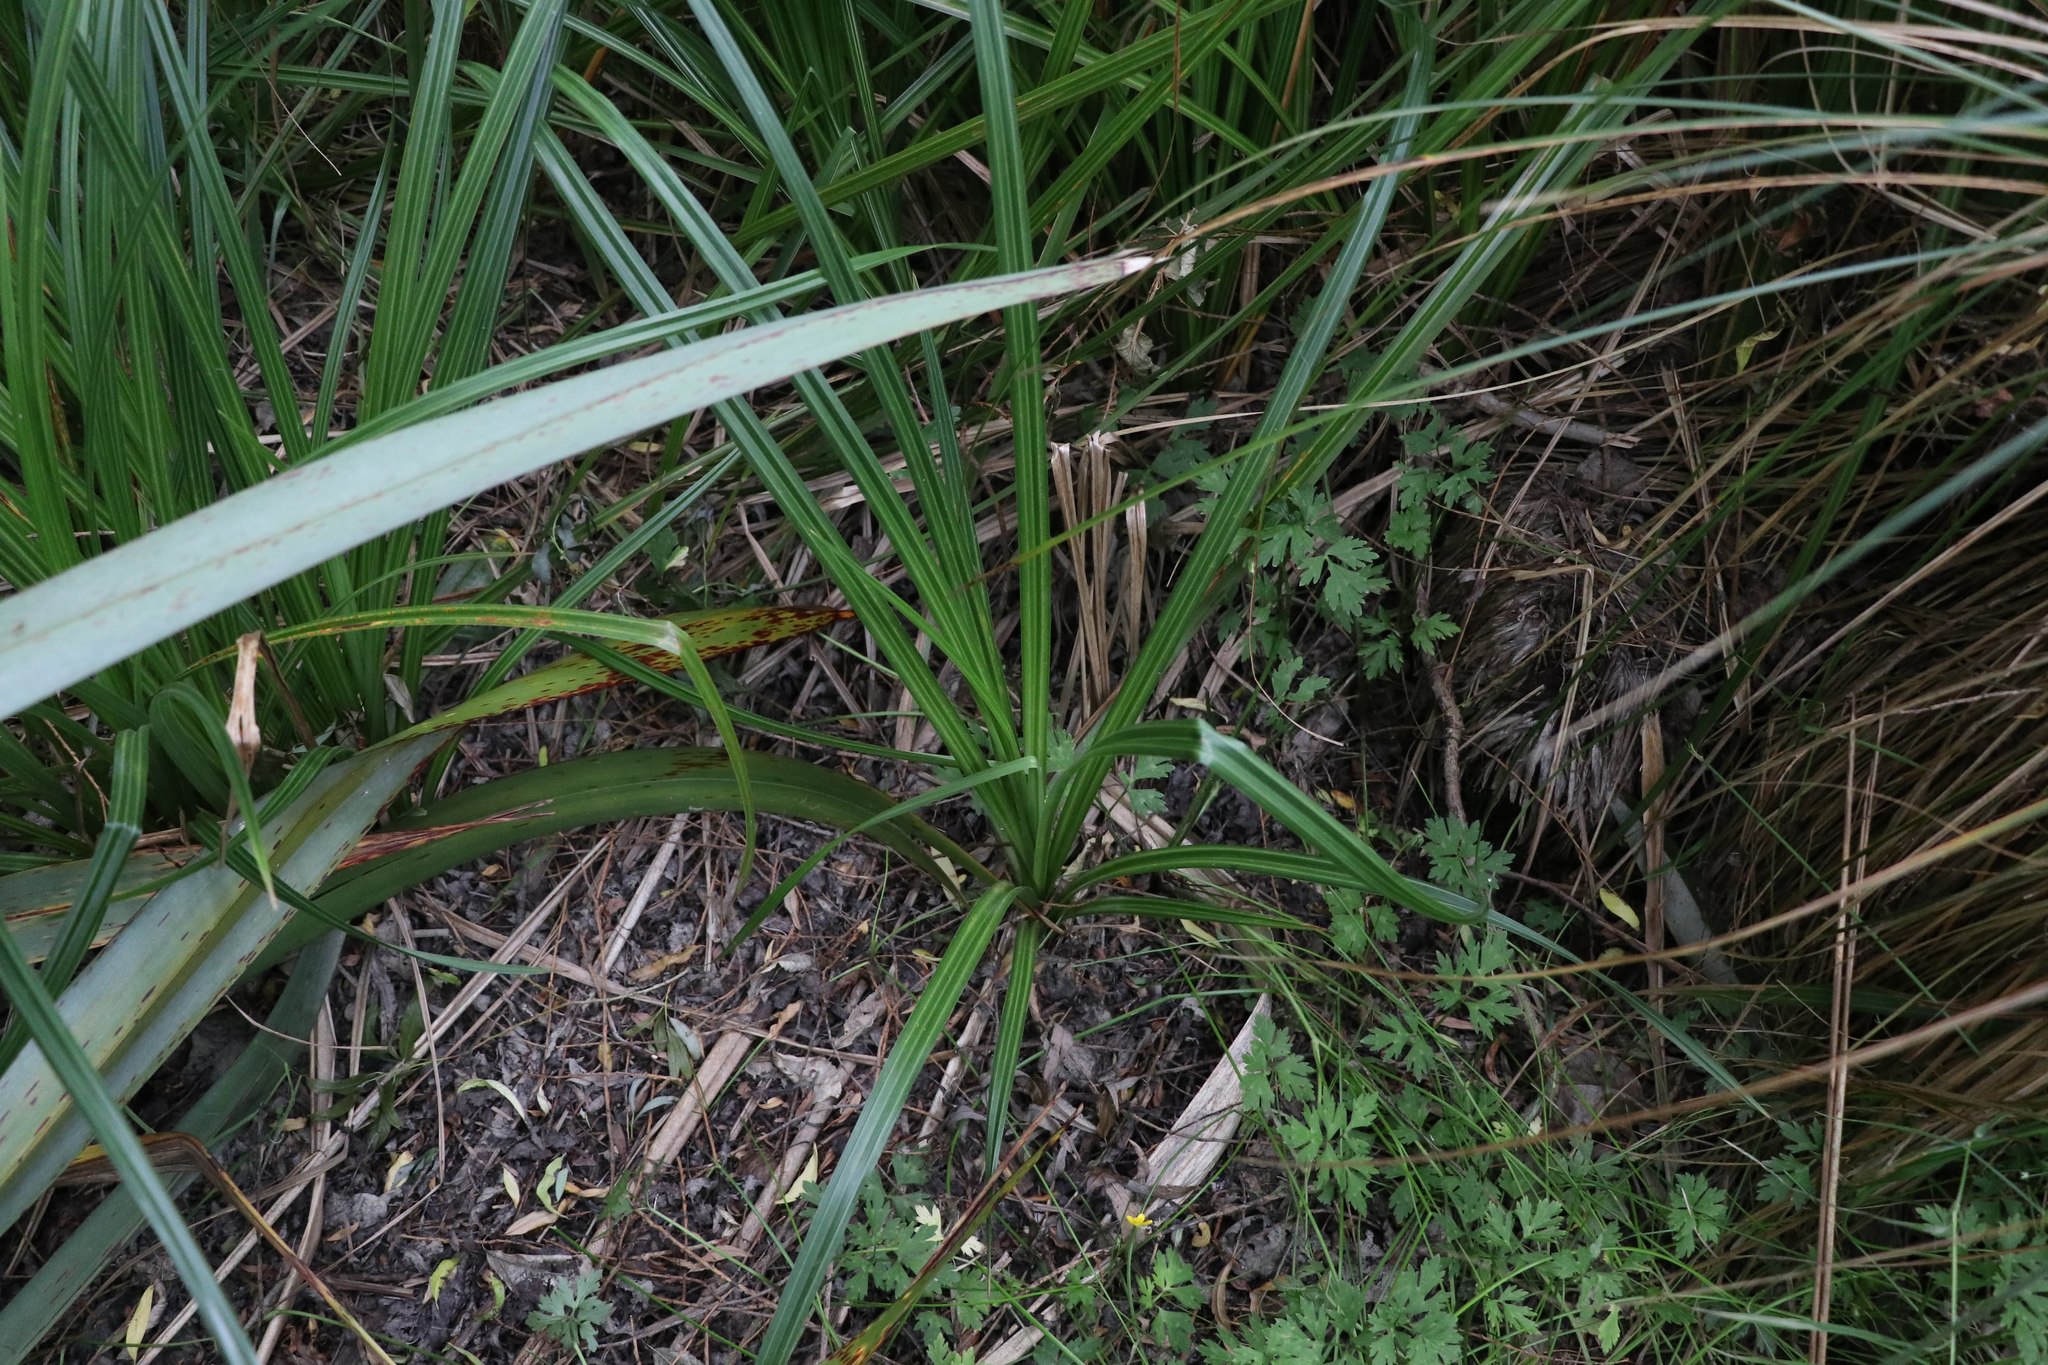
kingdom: Plantae
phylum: Tracheophyta
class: Liliopsida
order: Poales
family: Cyperaceae
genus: Carex
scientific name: Carex geminata
